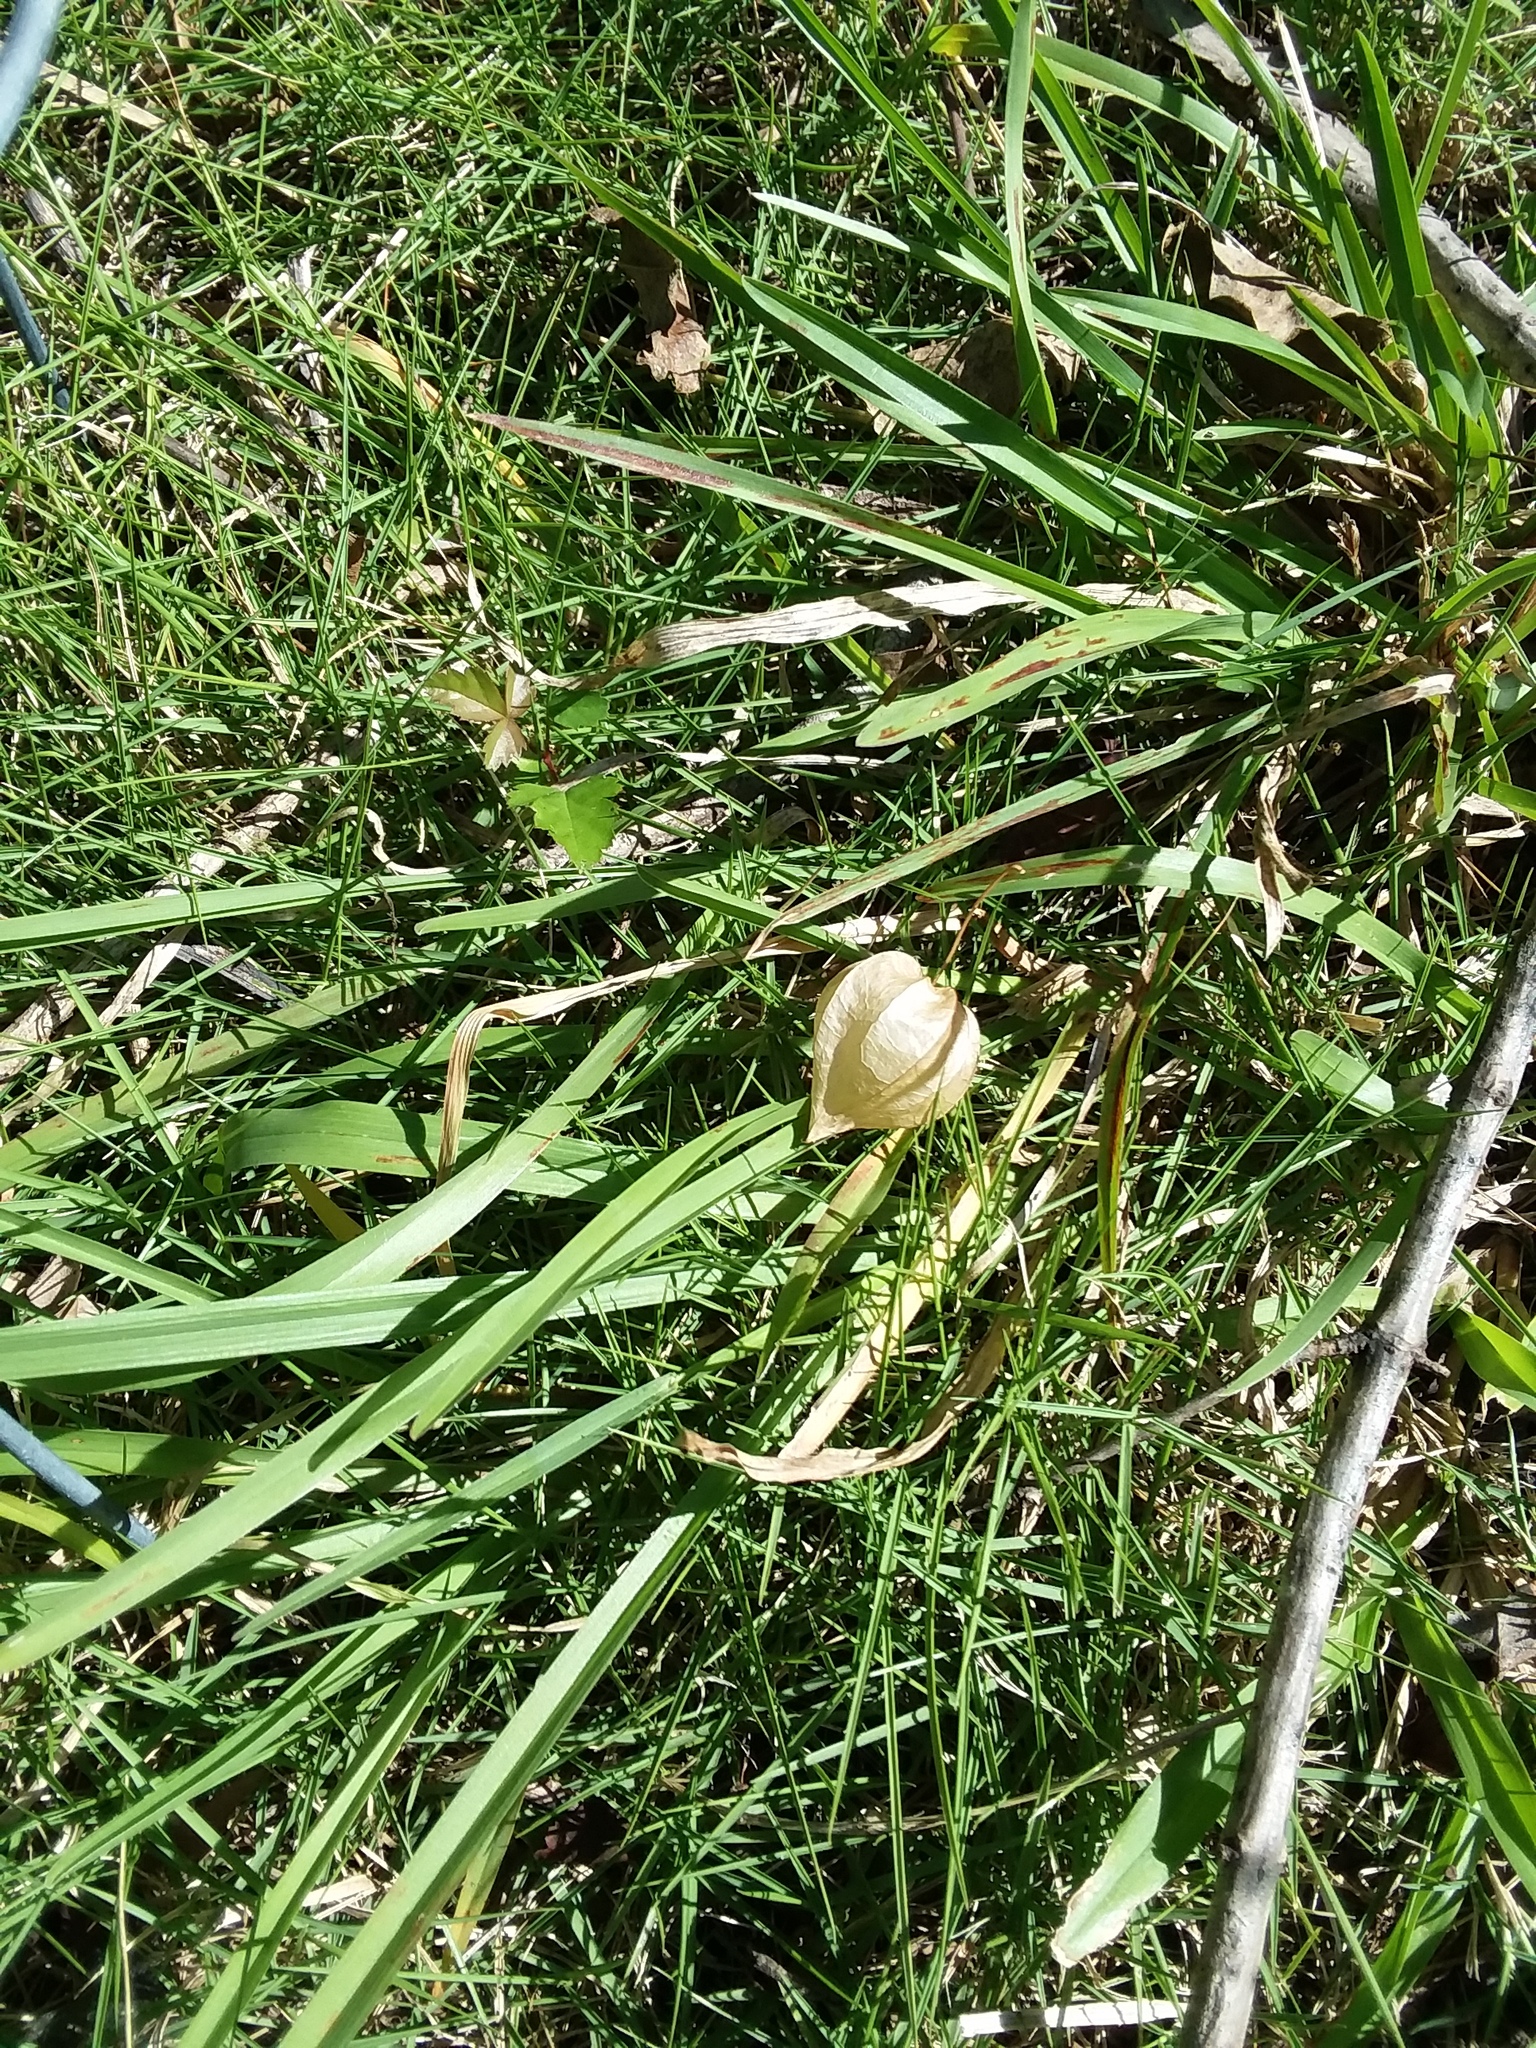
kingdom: Plantae
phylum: Tracheophyta
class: Magnoliopsida
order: Solanales
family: Solanaceae
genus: Physalis
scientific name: Physalis angulata
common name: Angular winter-cherry
